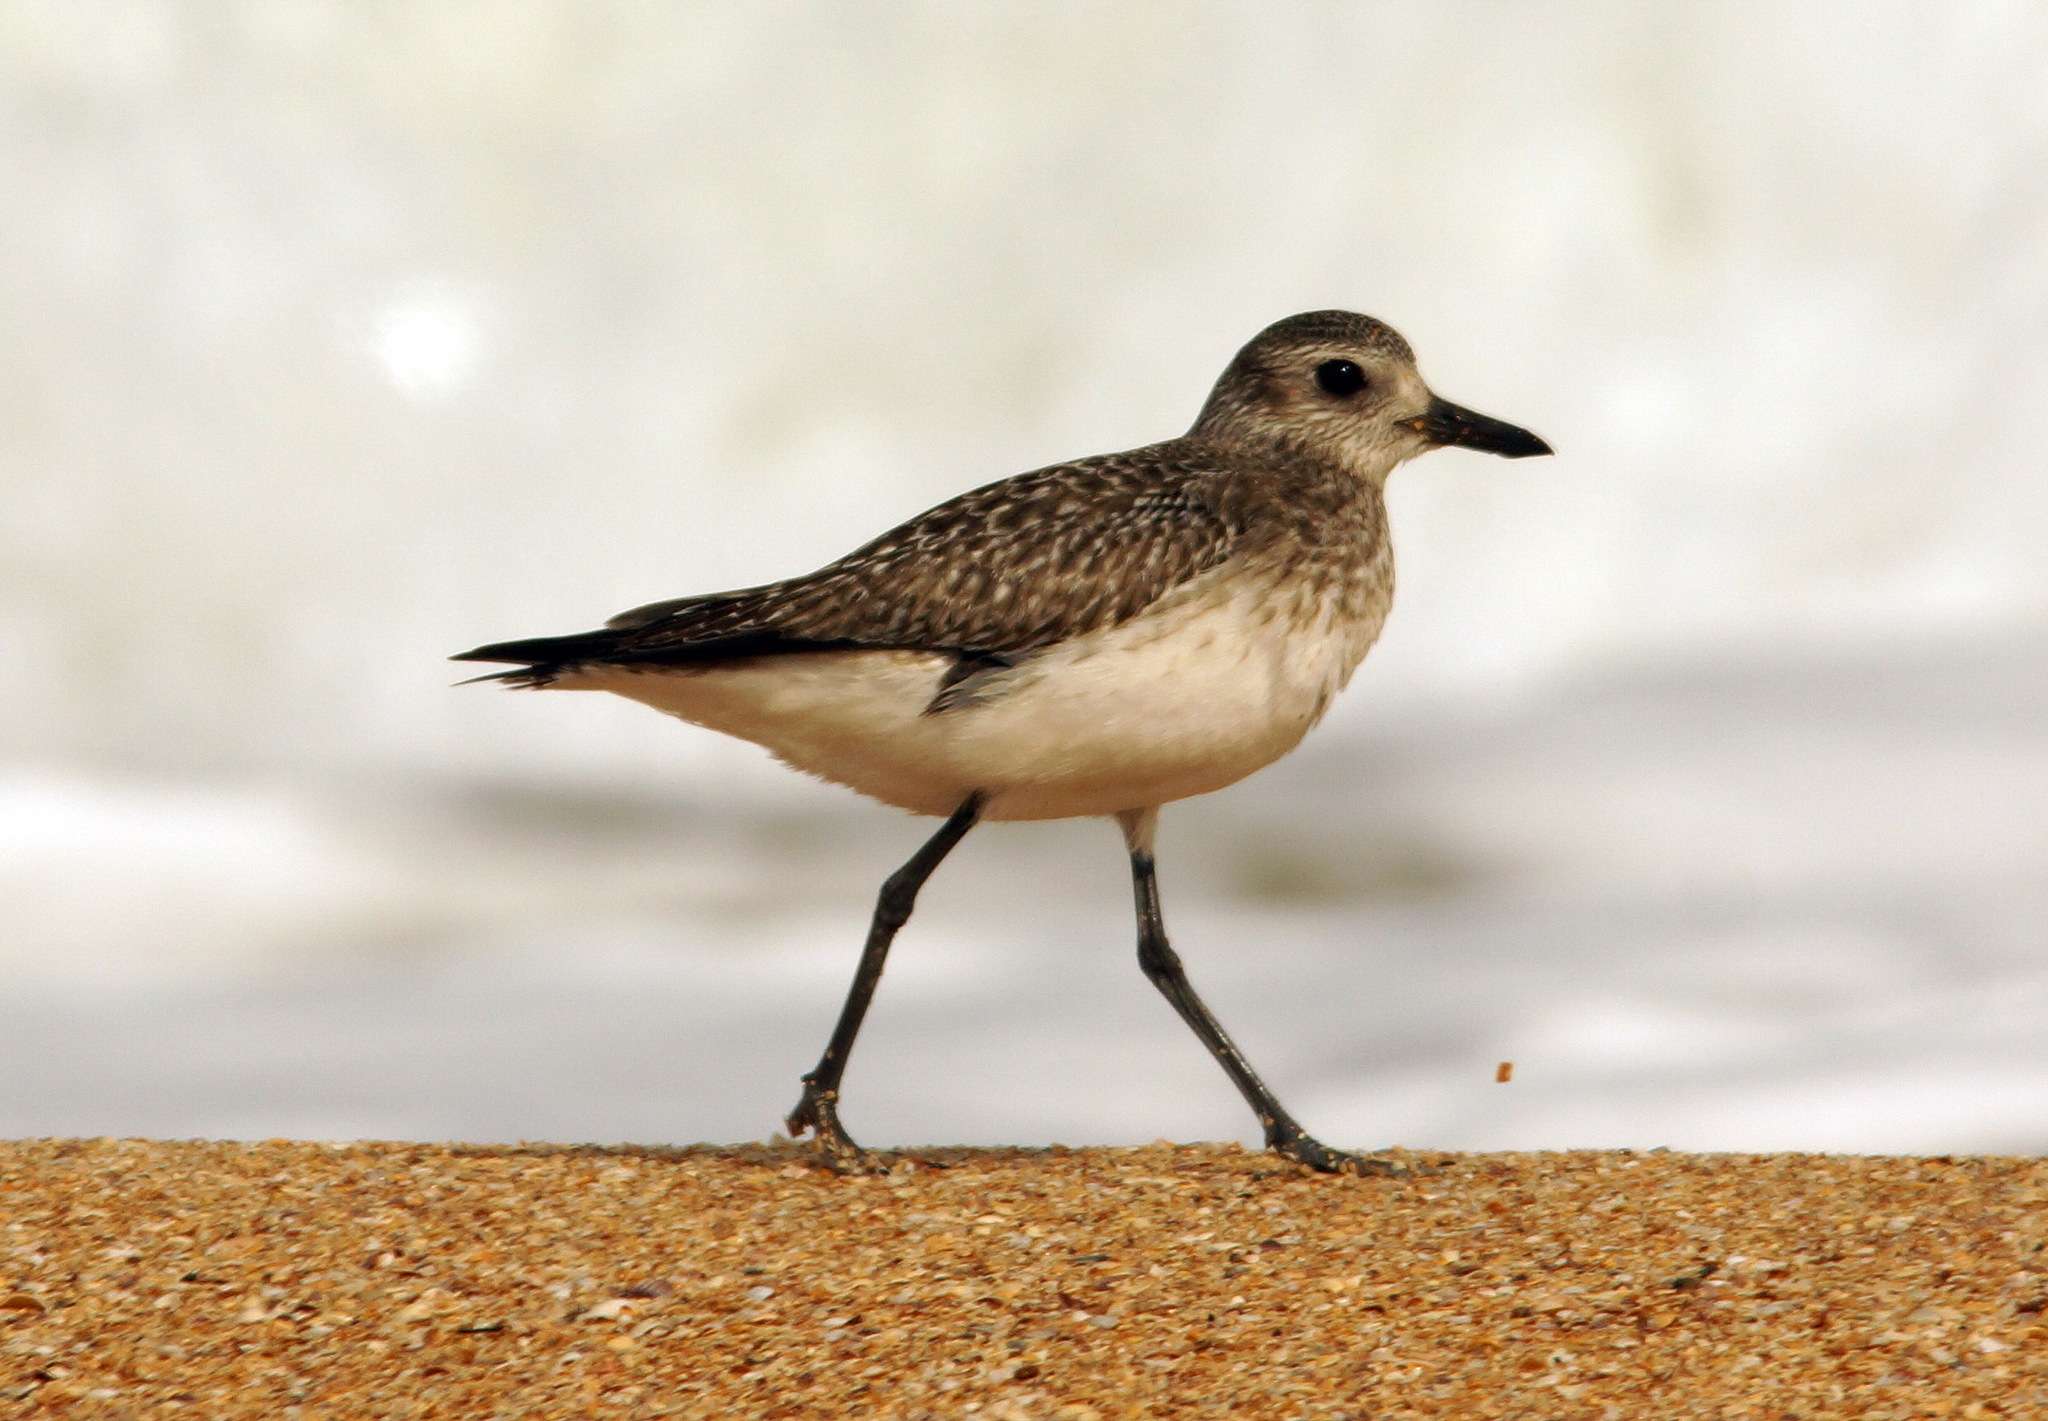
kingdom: Animalia
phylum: Chordata
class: Aves
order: Charadriiformes
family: Charadriidae
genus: Pluvialis
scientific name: Pluvialis squatarola
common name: Grey plover
